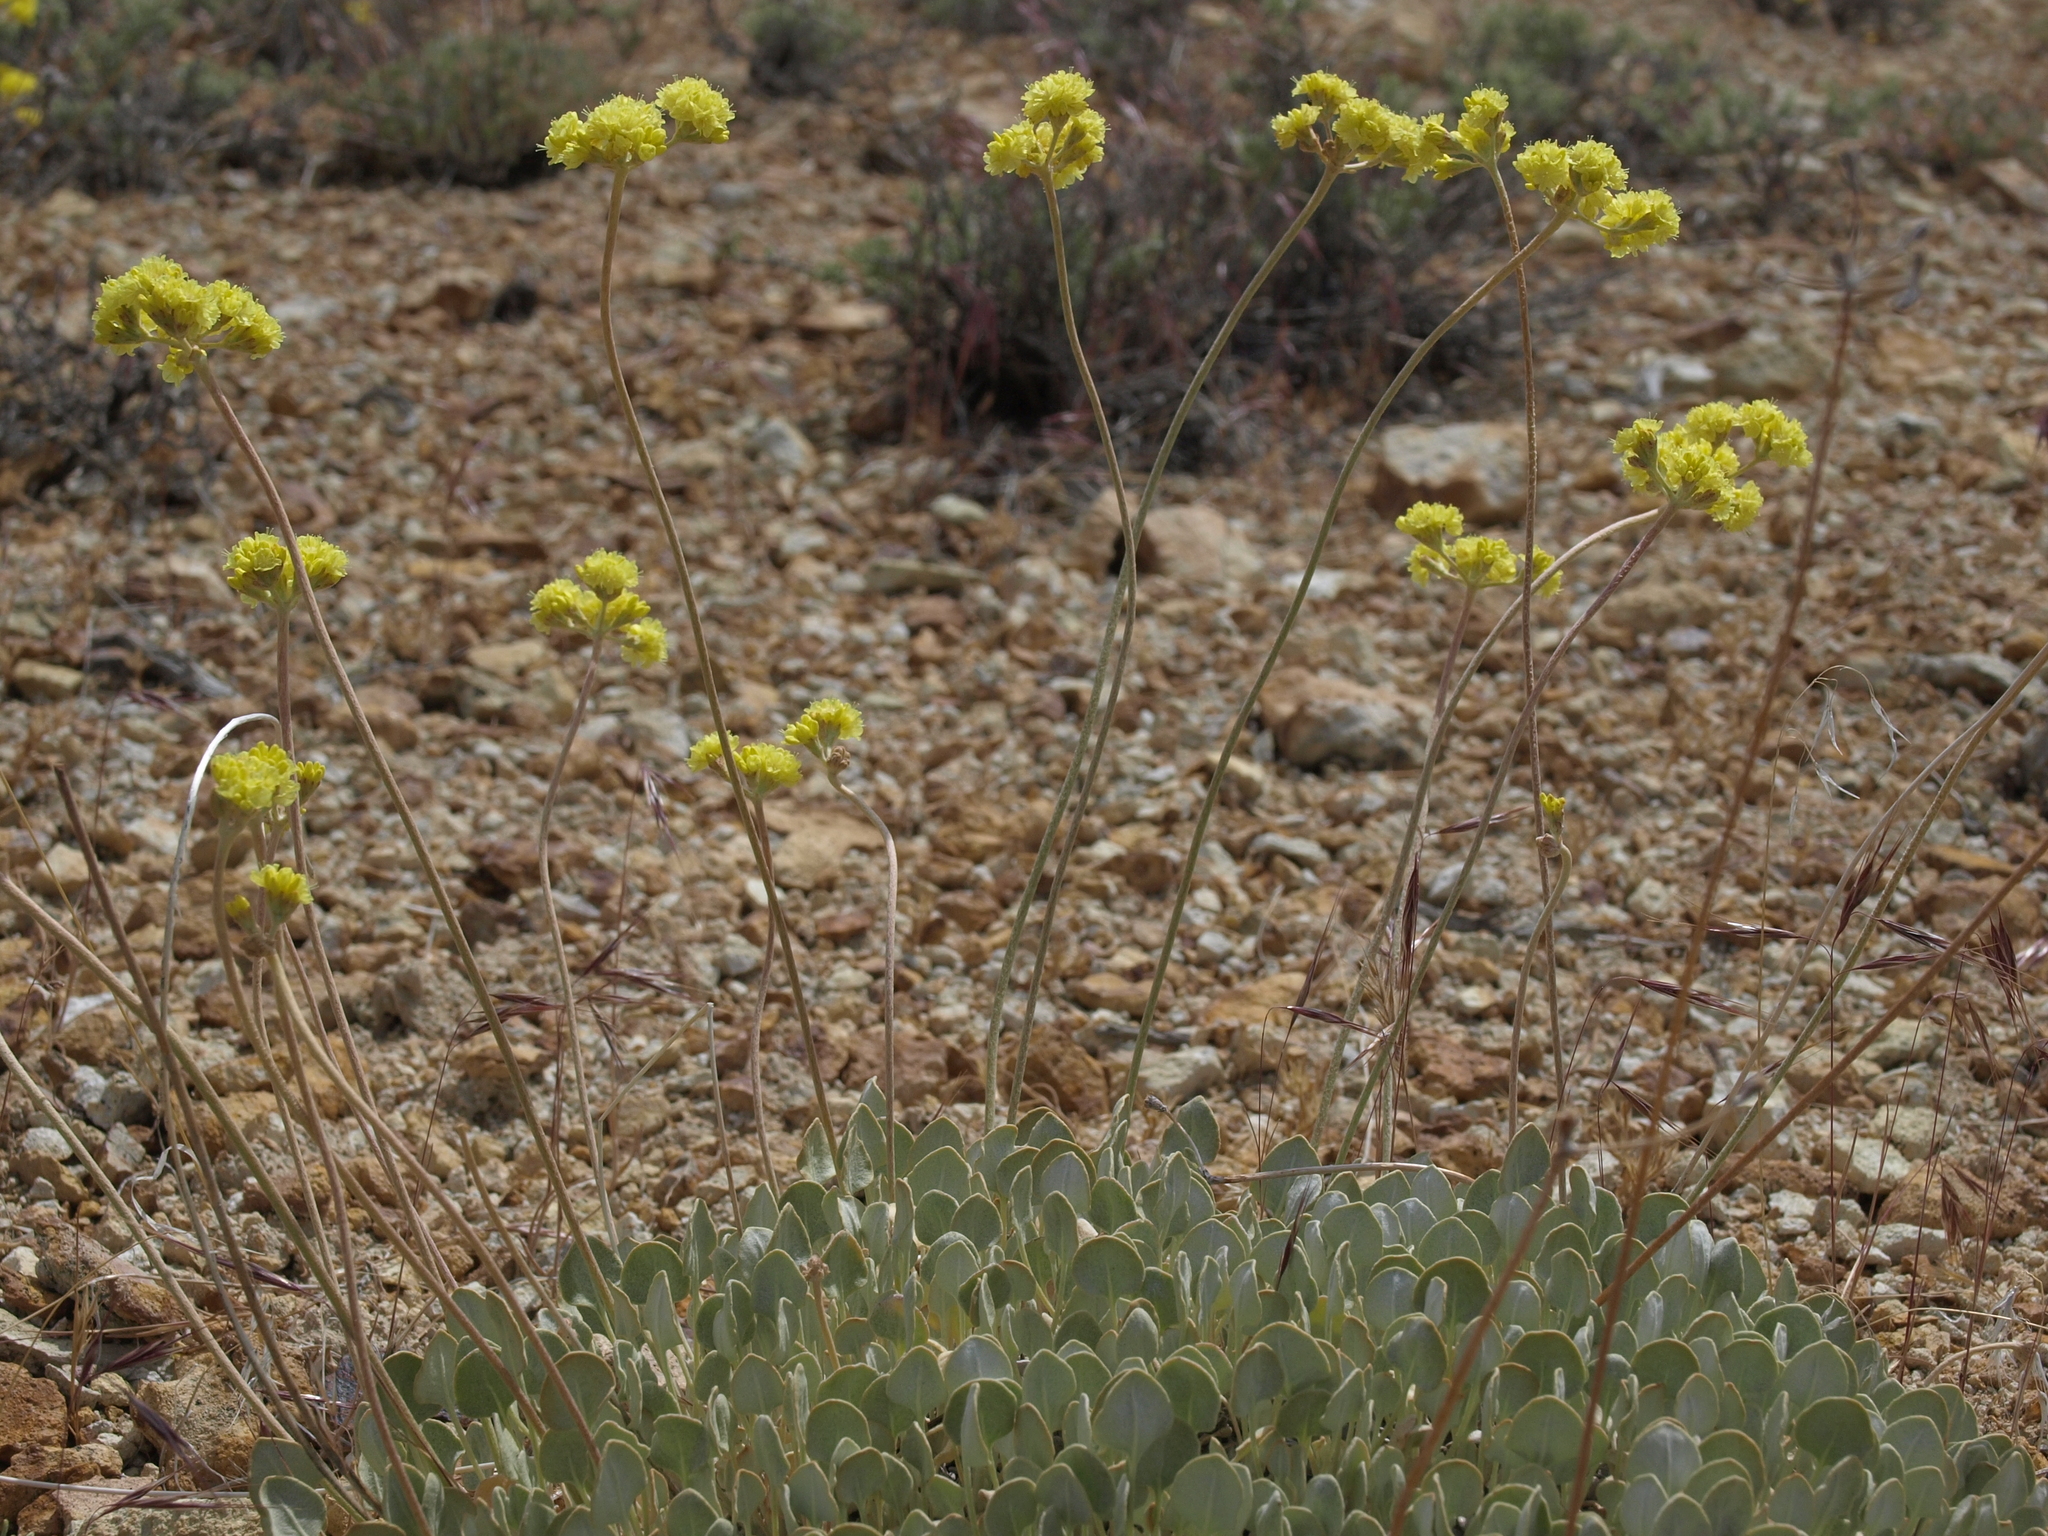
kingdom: Plantae
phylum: Tracheophyta
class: Magnoliopsida
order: Caryophyllales
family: Polygonaceae
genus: Eriogonum
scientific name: Eriogonum strictum
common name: Blue mountain buckwheat
